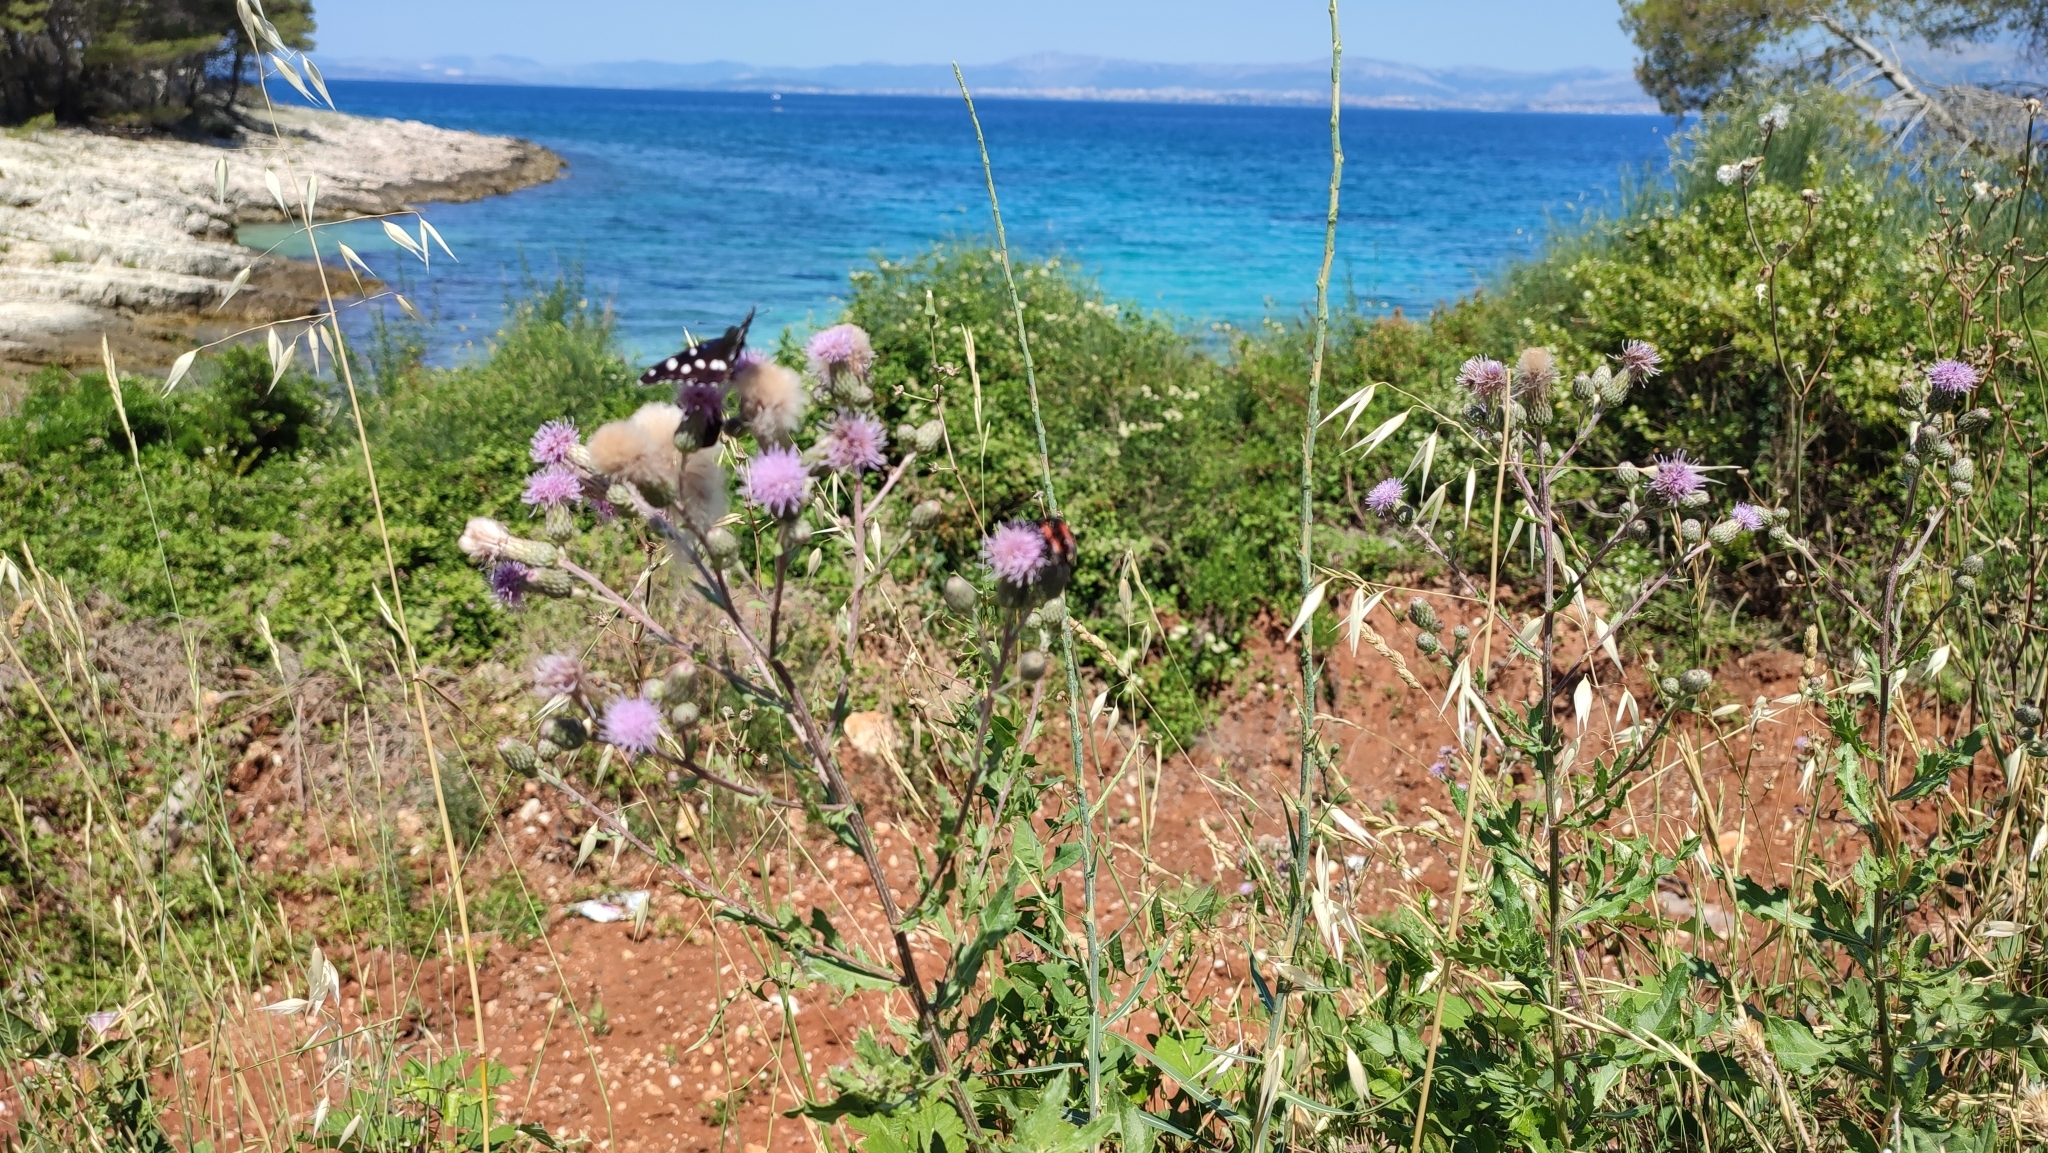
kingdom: Plantae
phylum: Tracheophyta
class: Magnoliopsida
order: Asterales
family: Asteraceae
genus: Cirsium
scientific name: Cirsium arvense
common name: Creeping thistle
